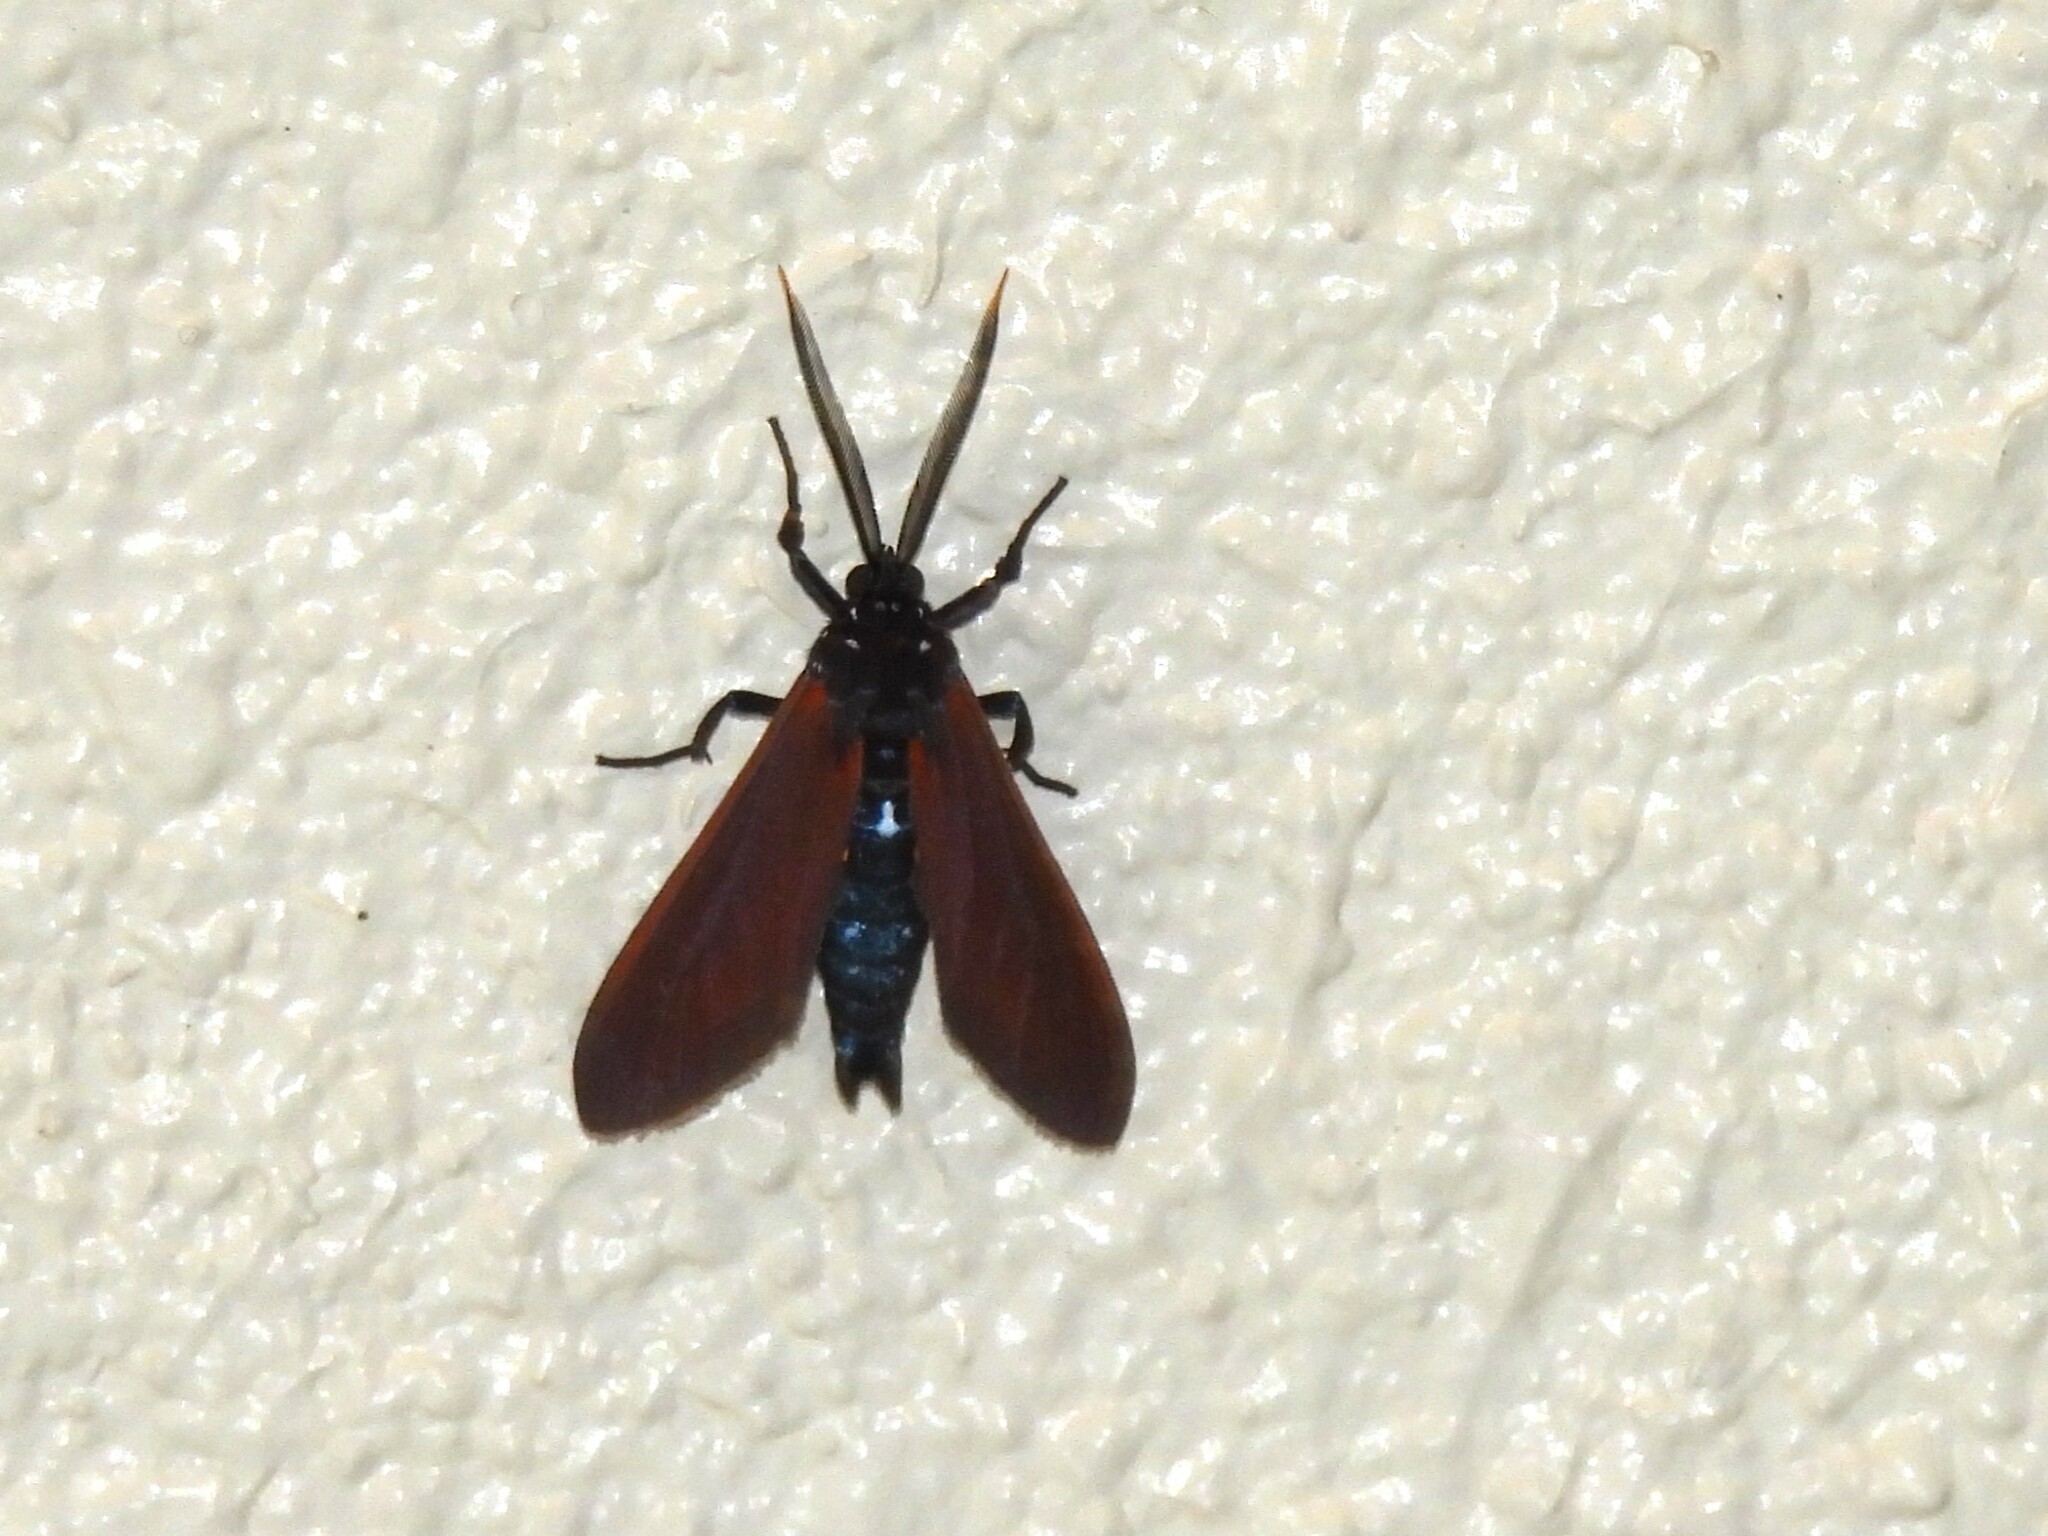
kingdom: Animalia
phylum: Arthropoda
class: Insecta
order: Lepidoptera
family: Erebidae
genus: Empyreuma
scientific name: Empyreuma pugione
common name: Spotted oleander caterpillar moth
